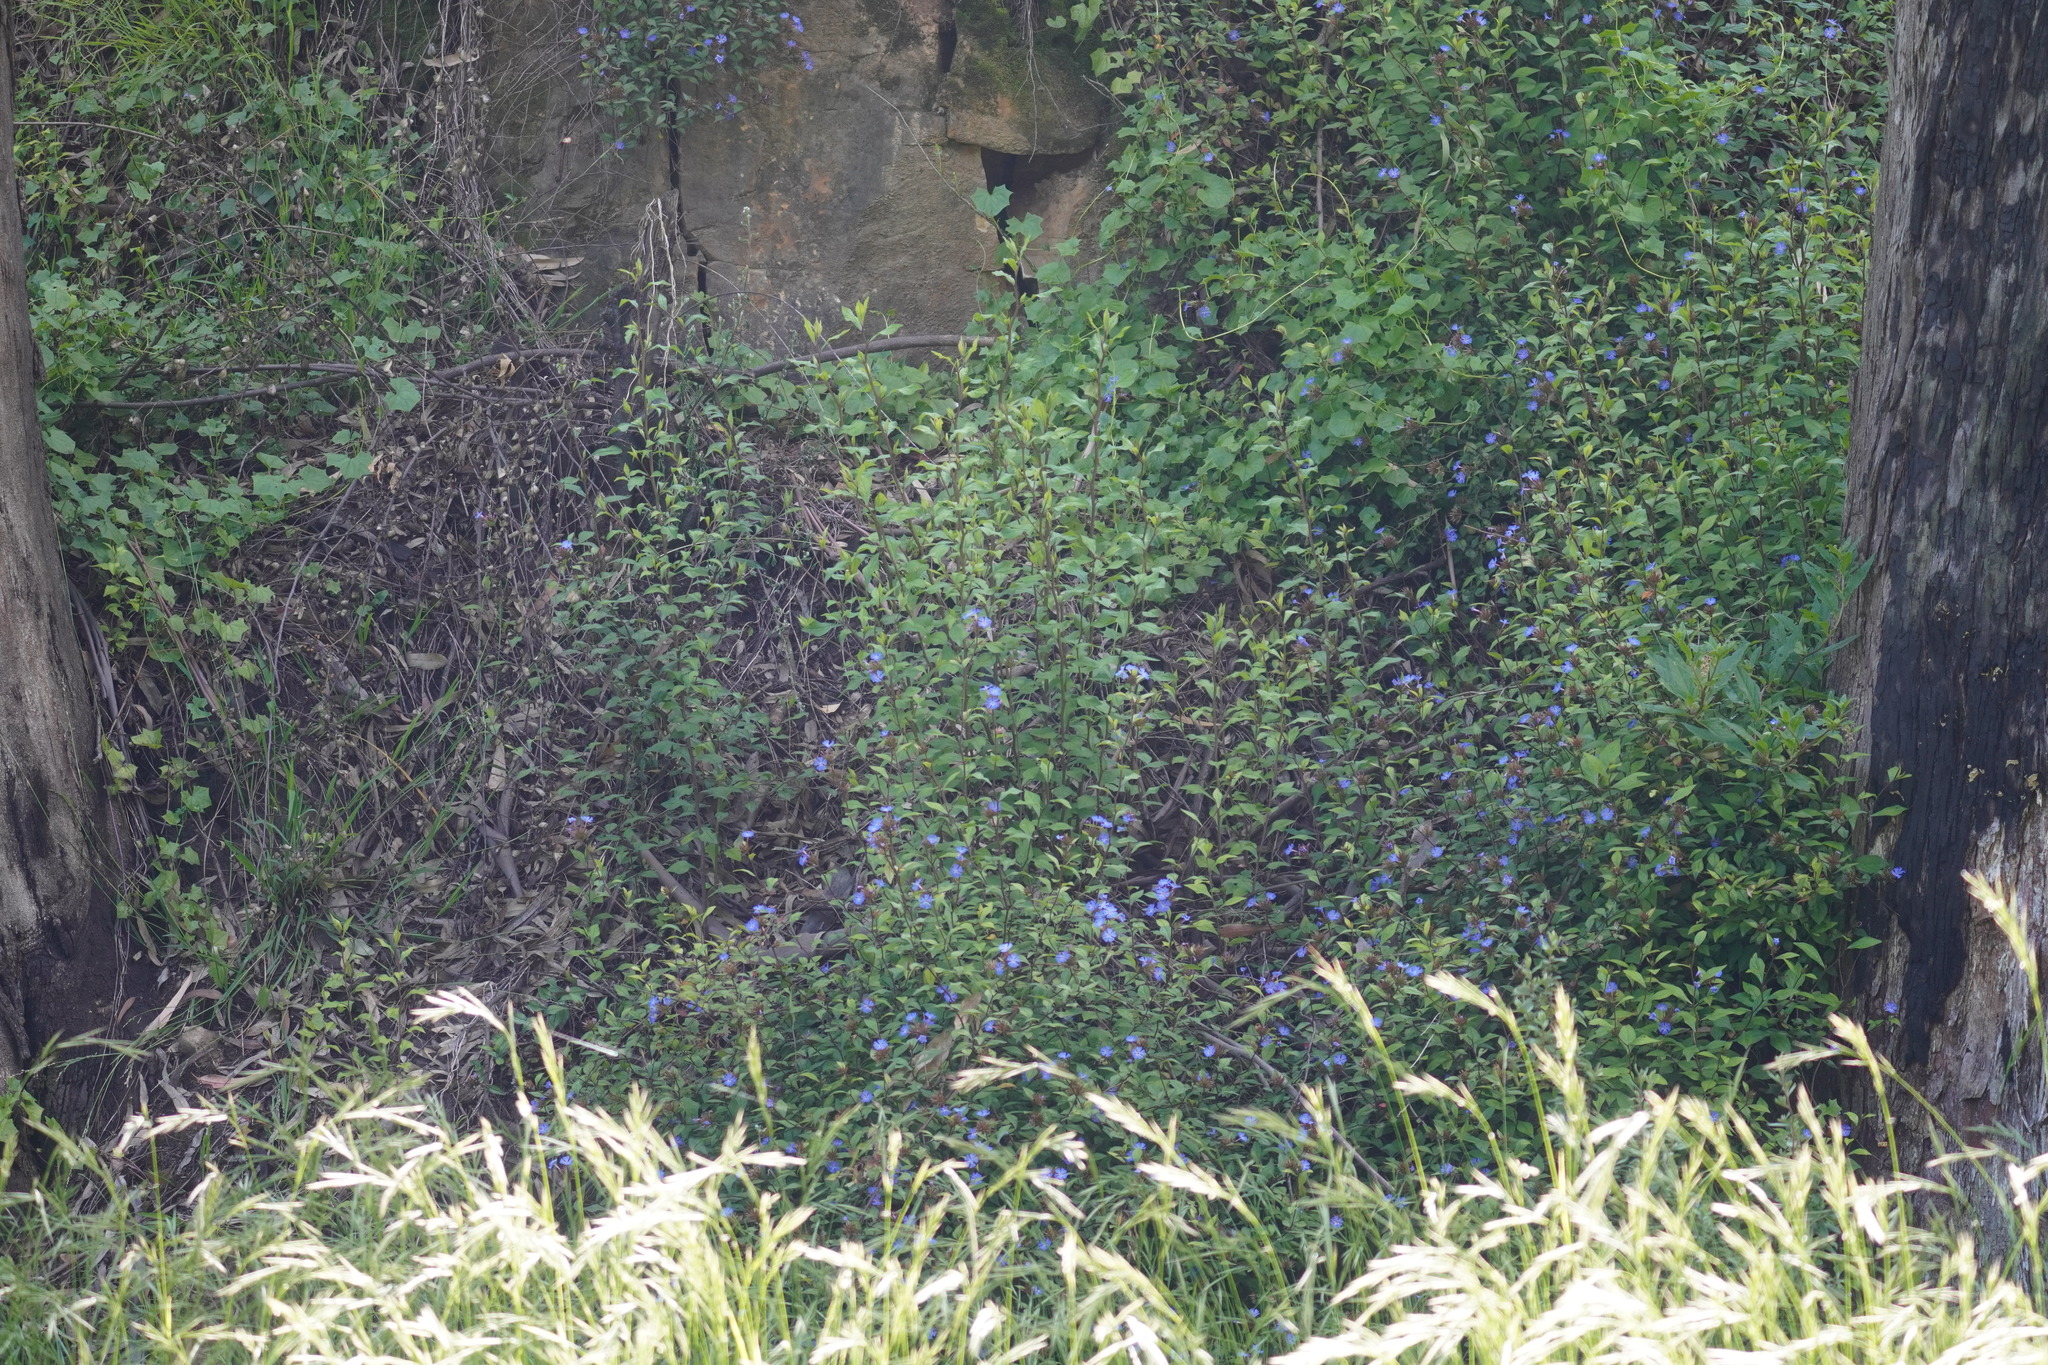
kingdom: Plantae
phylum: Tracheophyta
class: Magnoliopsida
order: Caryophyllales
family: Plumbaginaceae
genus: Ceratostigma
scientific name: Ceratostigma willmottianum
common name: Chinese-plumbago
